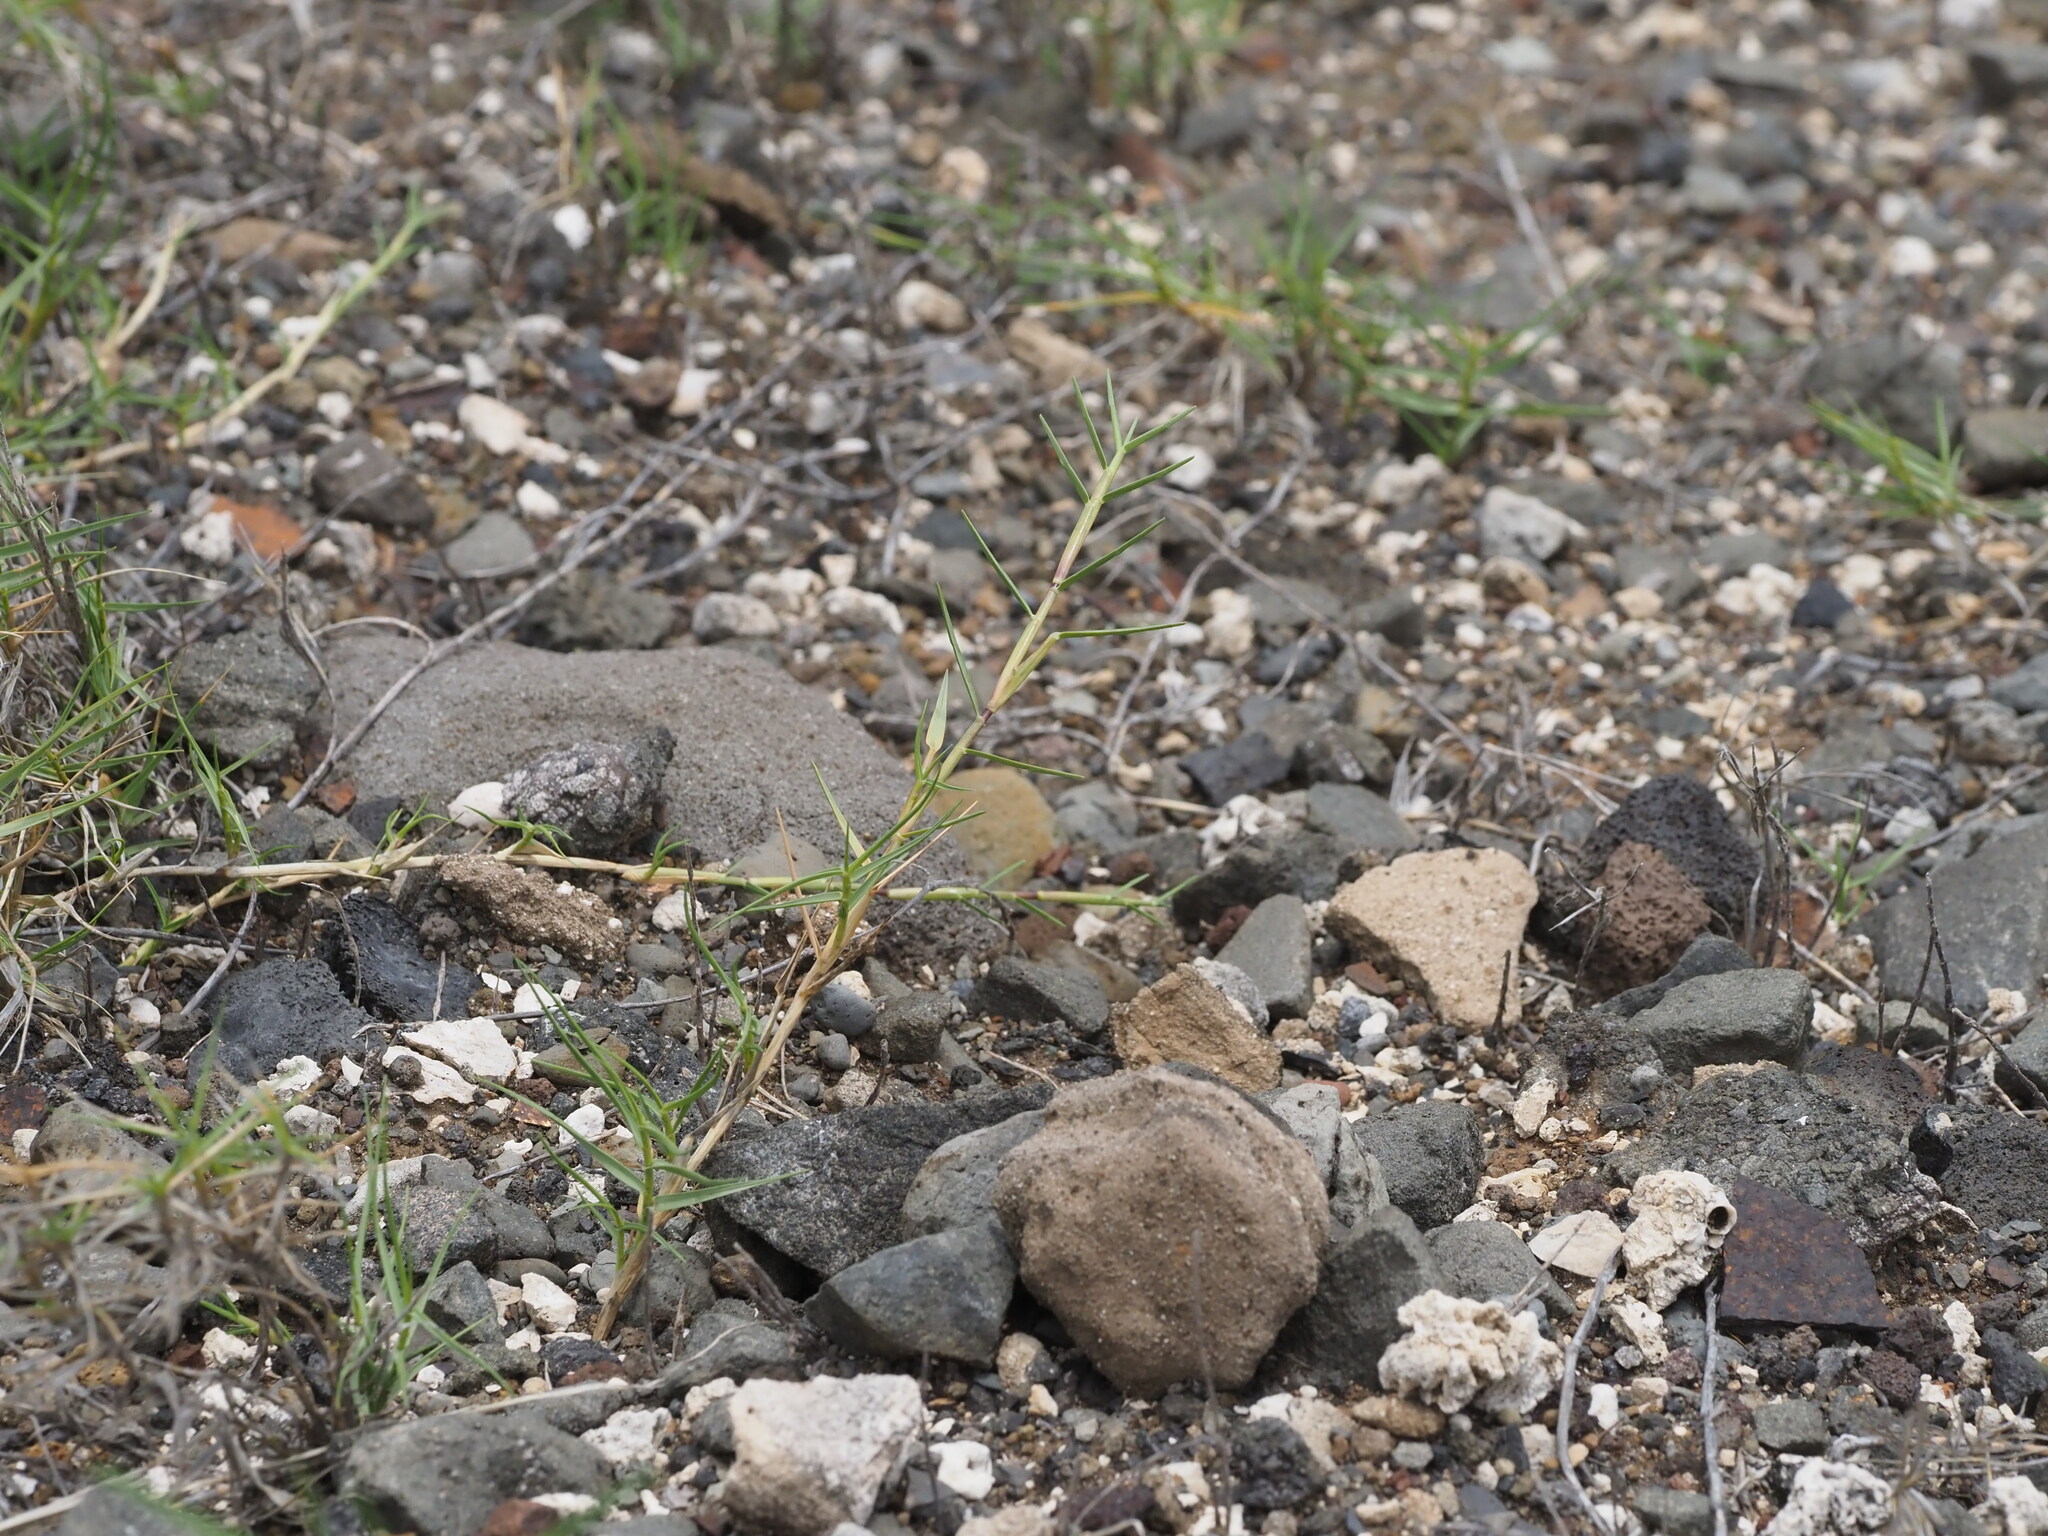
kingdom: Plantae
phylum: Tracheophyta
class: Liliopsida
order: Poales
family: Poaceae
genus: Cynodon
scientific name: Cynodon dactylon
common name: Bermuda grass
